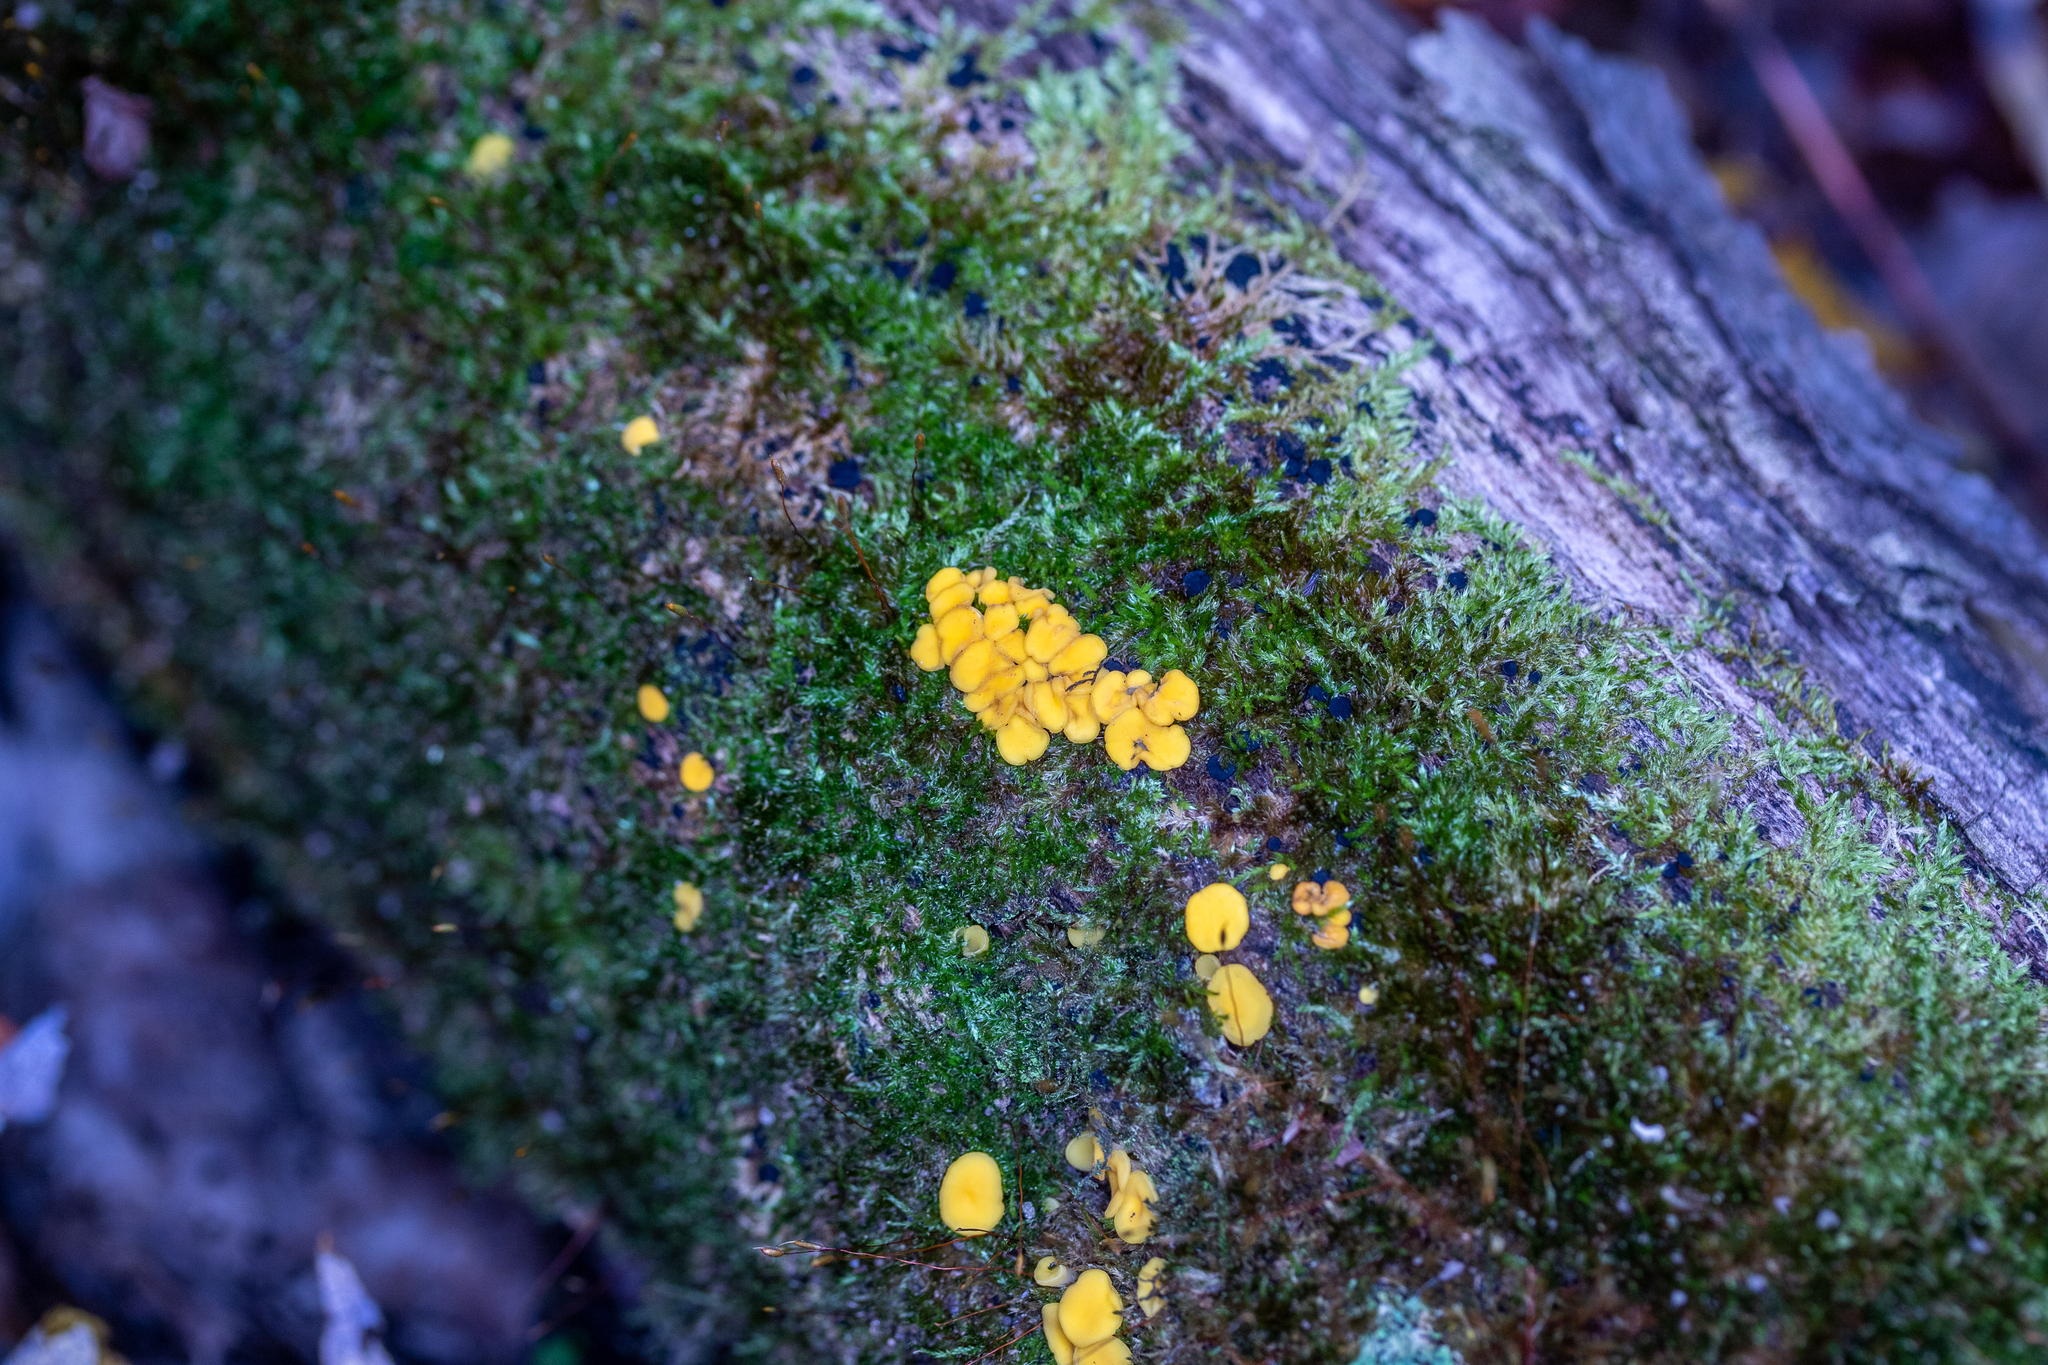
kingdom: Fungi
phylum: Ascomycota
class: Leotiomycetes
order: Helotiales
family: Pezizellaceae
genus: Calycina
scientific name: Calycina citrina
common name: Yellow fairy cups
